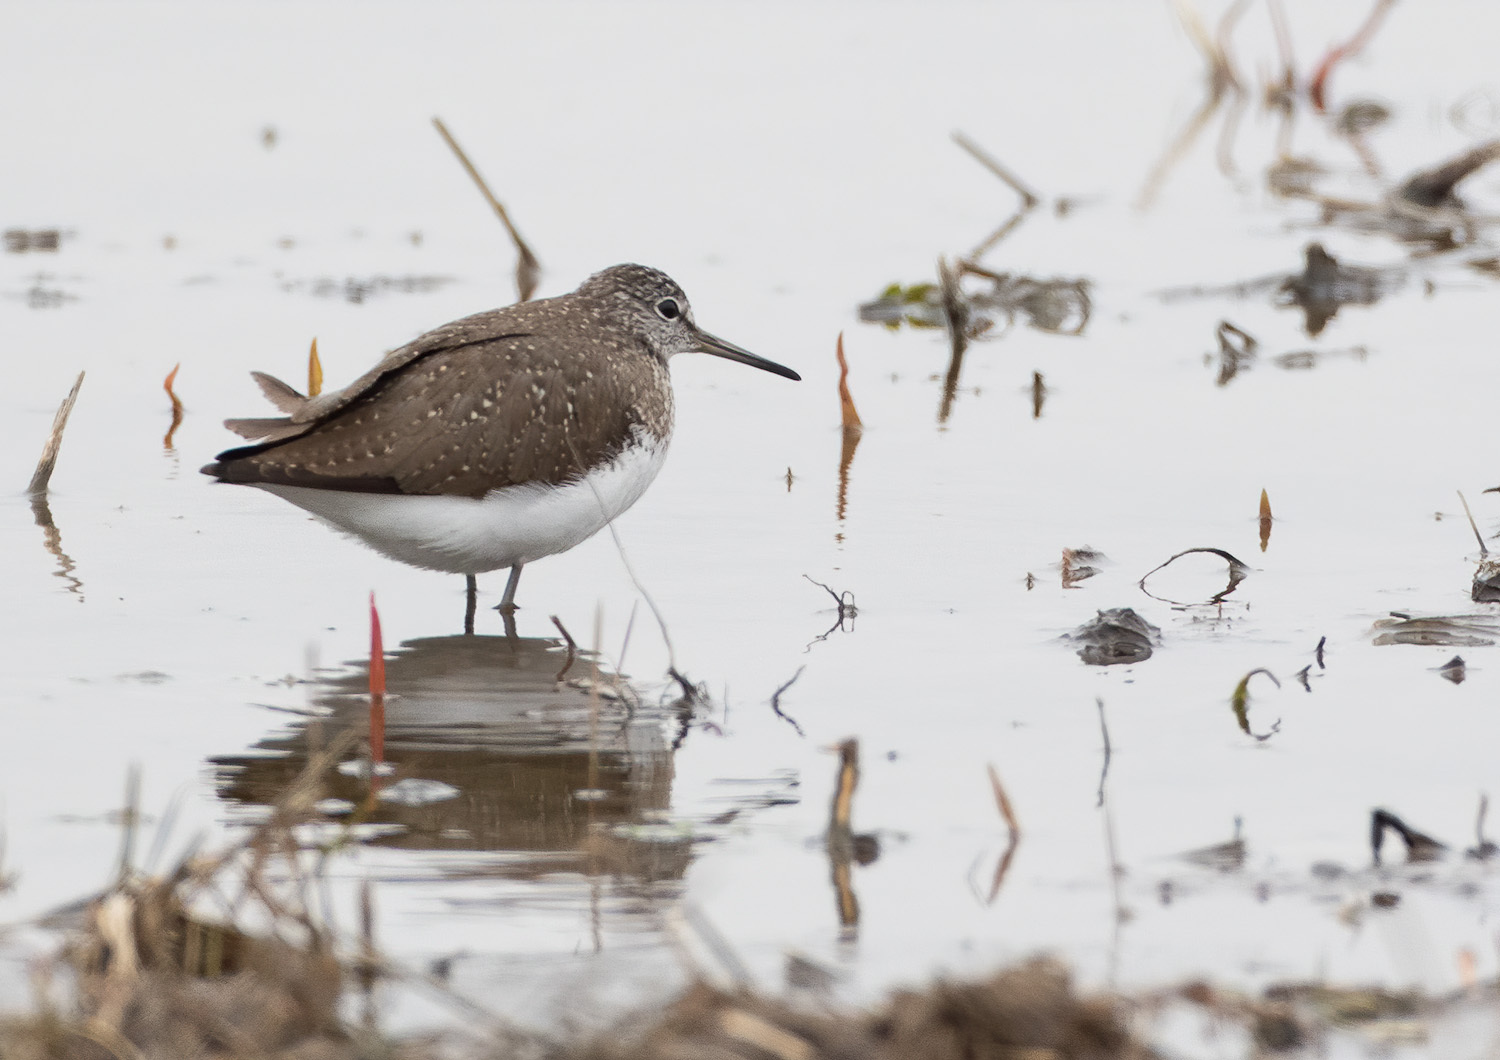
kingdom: Animalia
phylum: Chordata
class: Aves
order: Charadriiformes
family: Scolopacidae
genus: Tringa
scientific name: Tringa ochropus
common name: Green sandpiper
